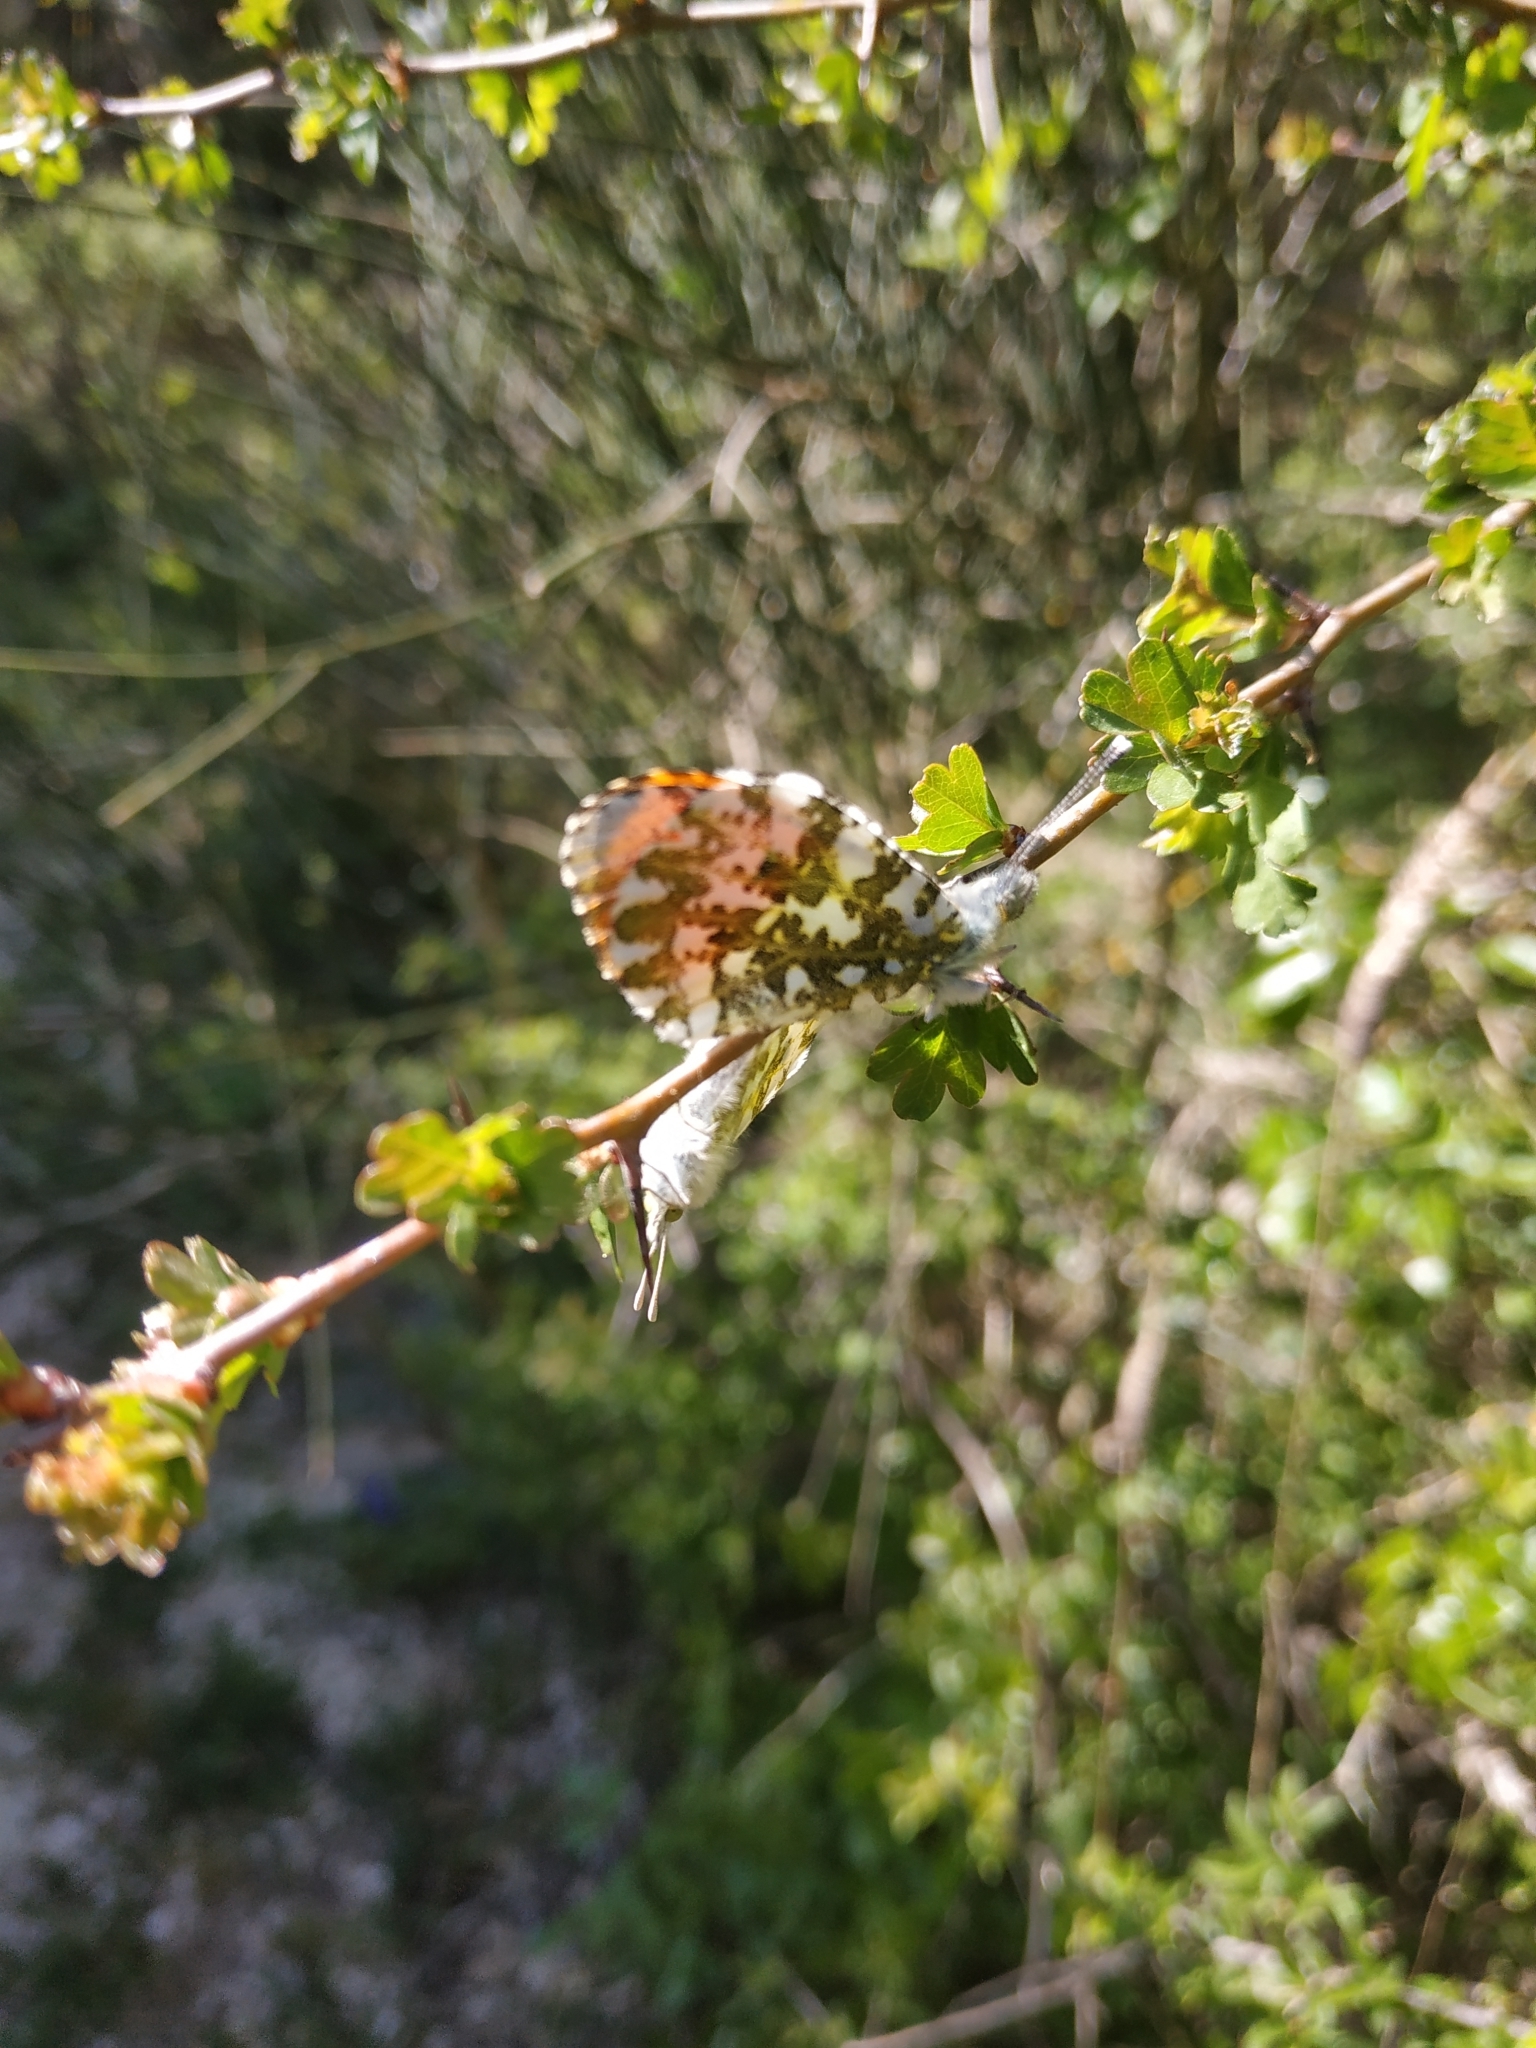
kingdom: Animalia
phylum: Arthropoda
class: Insecta
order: Lepidoptera
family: Pieridae
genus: Anthocharis
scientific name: Anthocharis cardamines
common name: Orange-tip
